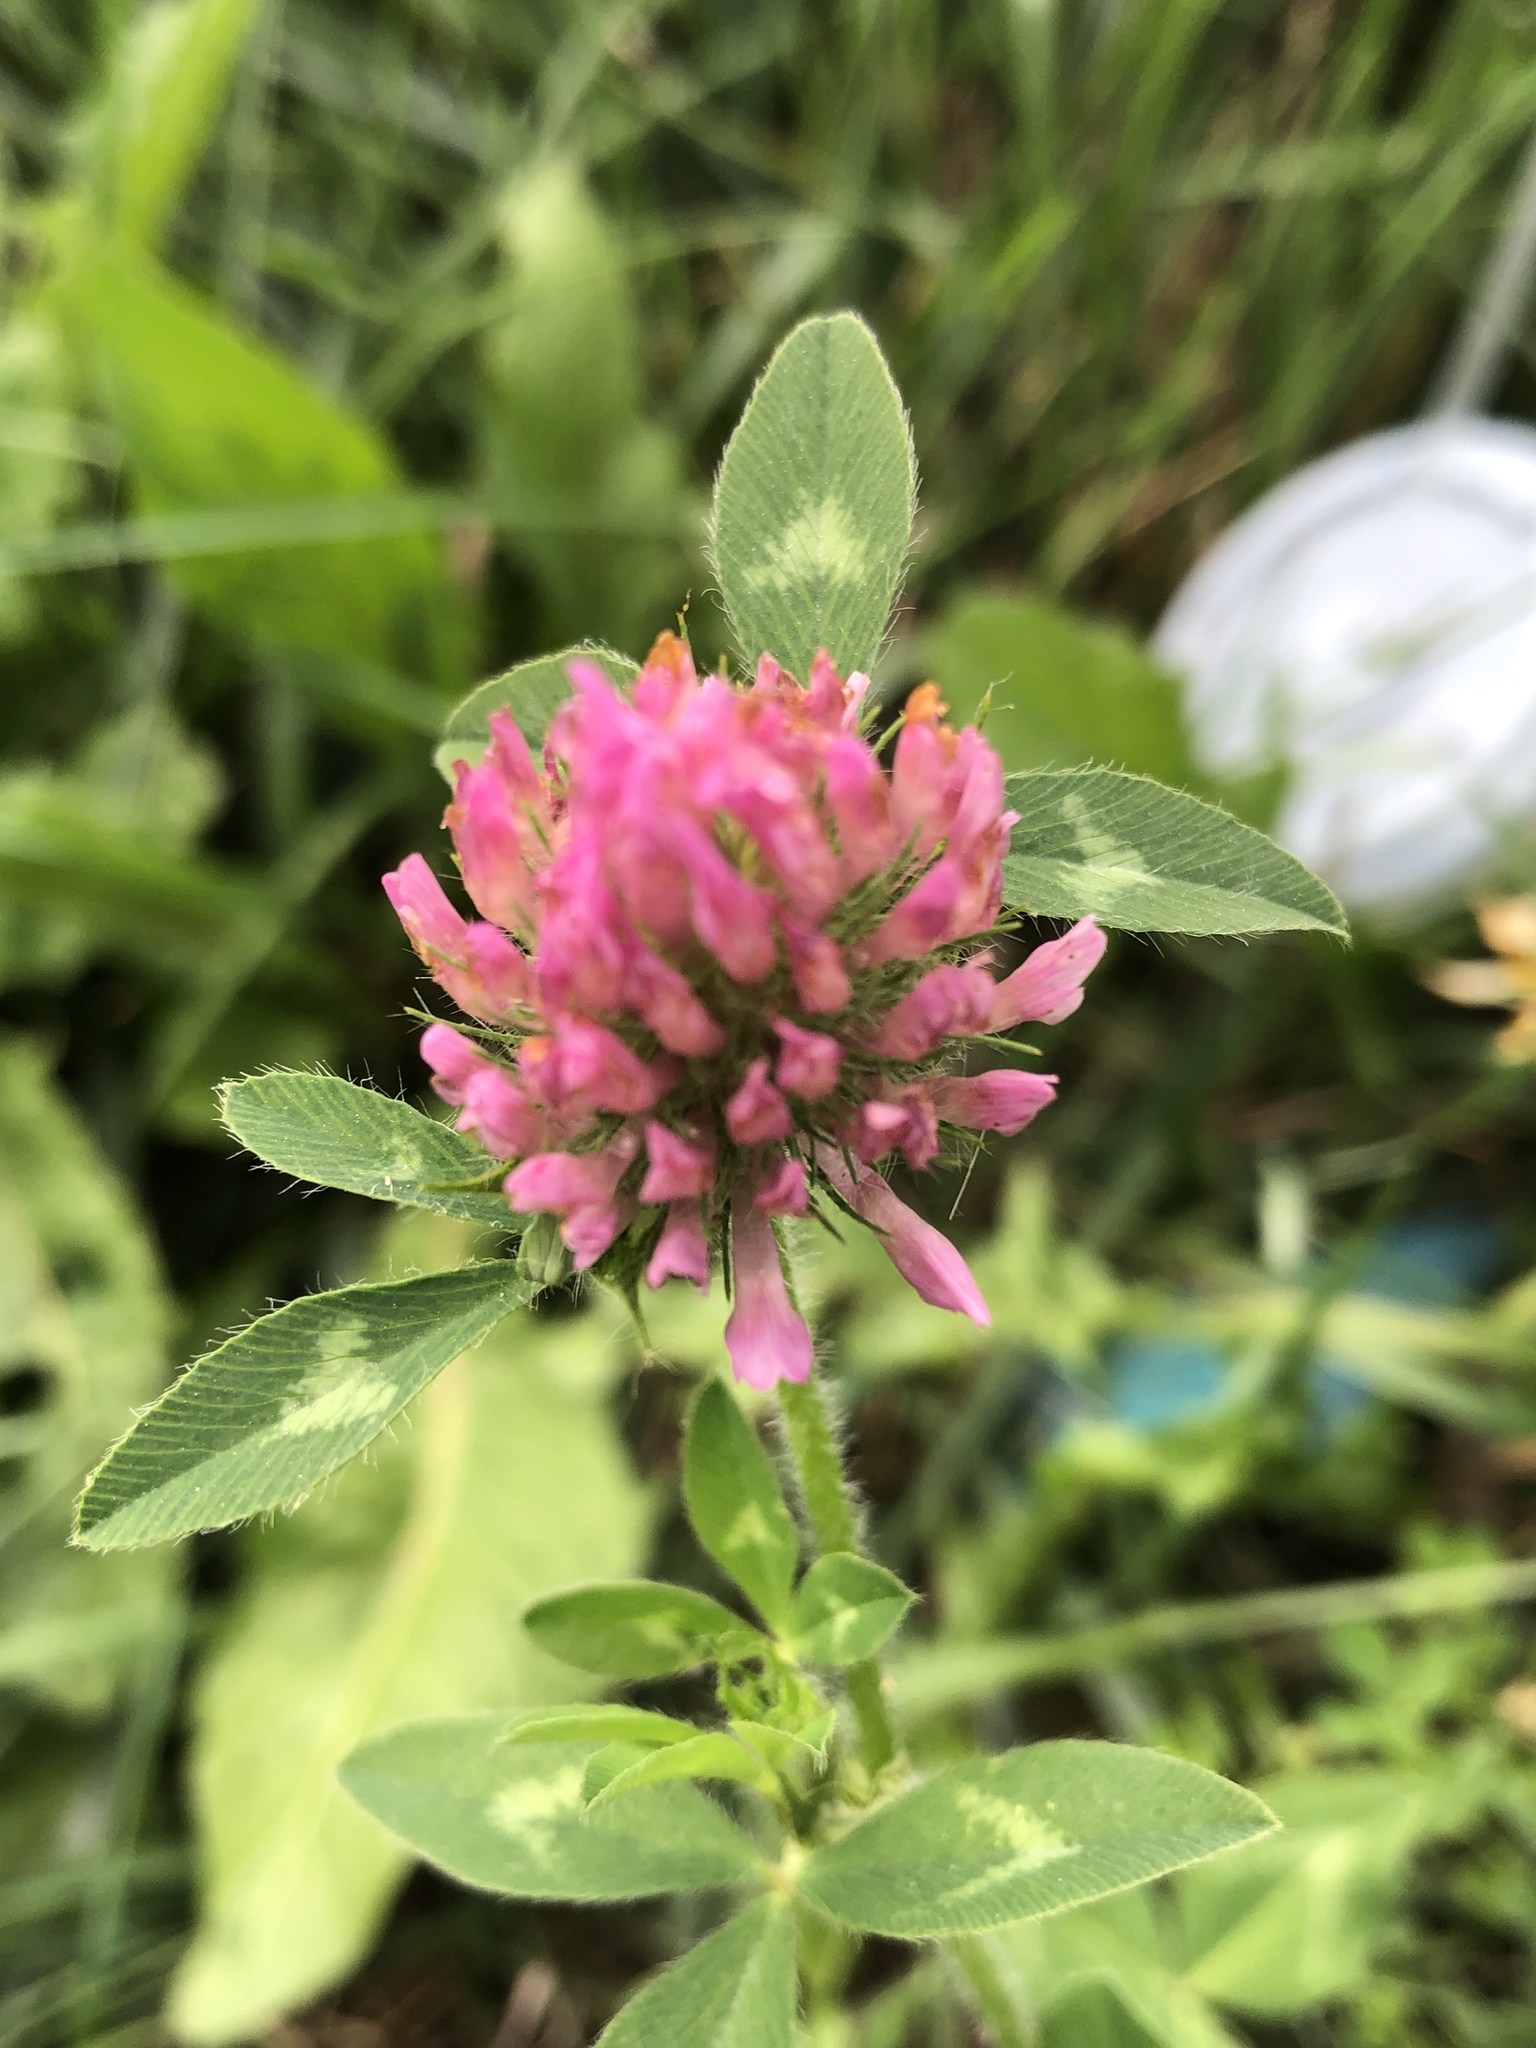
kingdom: Plantae
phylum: Tracheophyta
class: Magnoliopsida
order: Fabales
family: Fabaceae
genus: Trifolium
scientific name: Trifolium pratense
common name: Red clover
